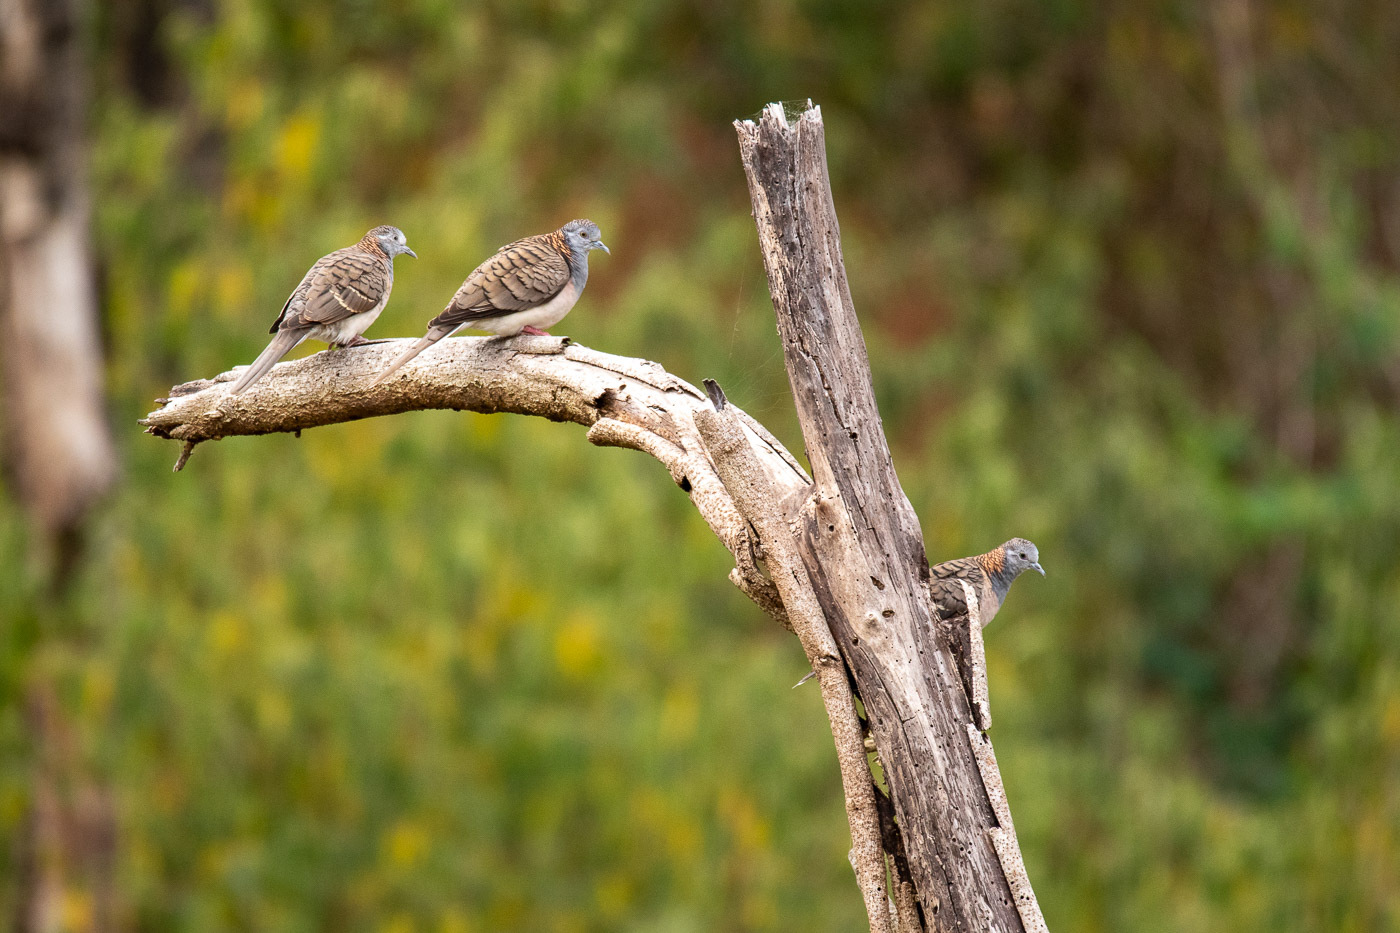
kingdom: Animalia
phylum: Chordata
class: Aves
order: Columbiformes
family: Columbidae
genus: Geopelia
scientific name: Geopelia humeralis
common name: Bar-shouldered dove
